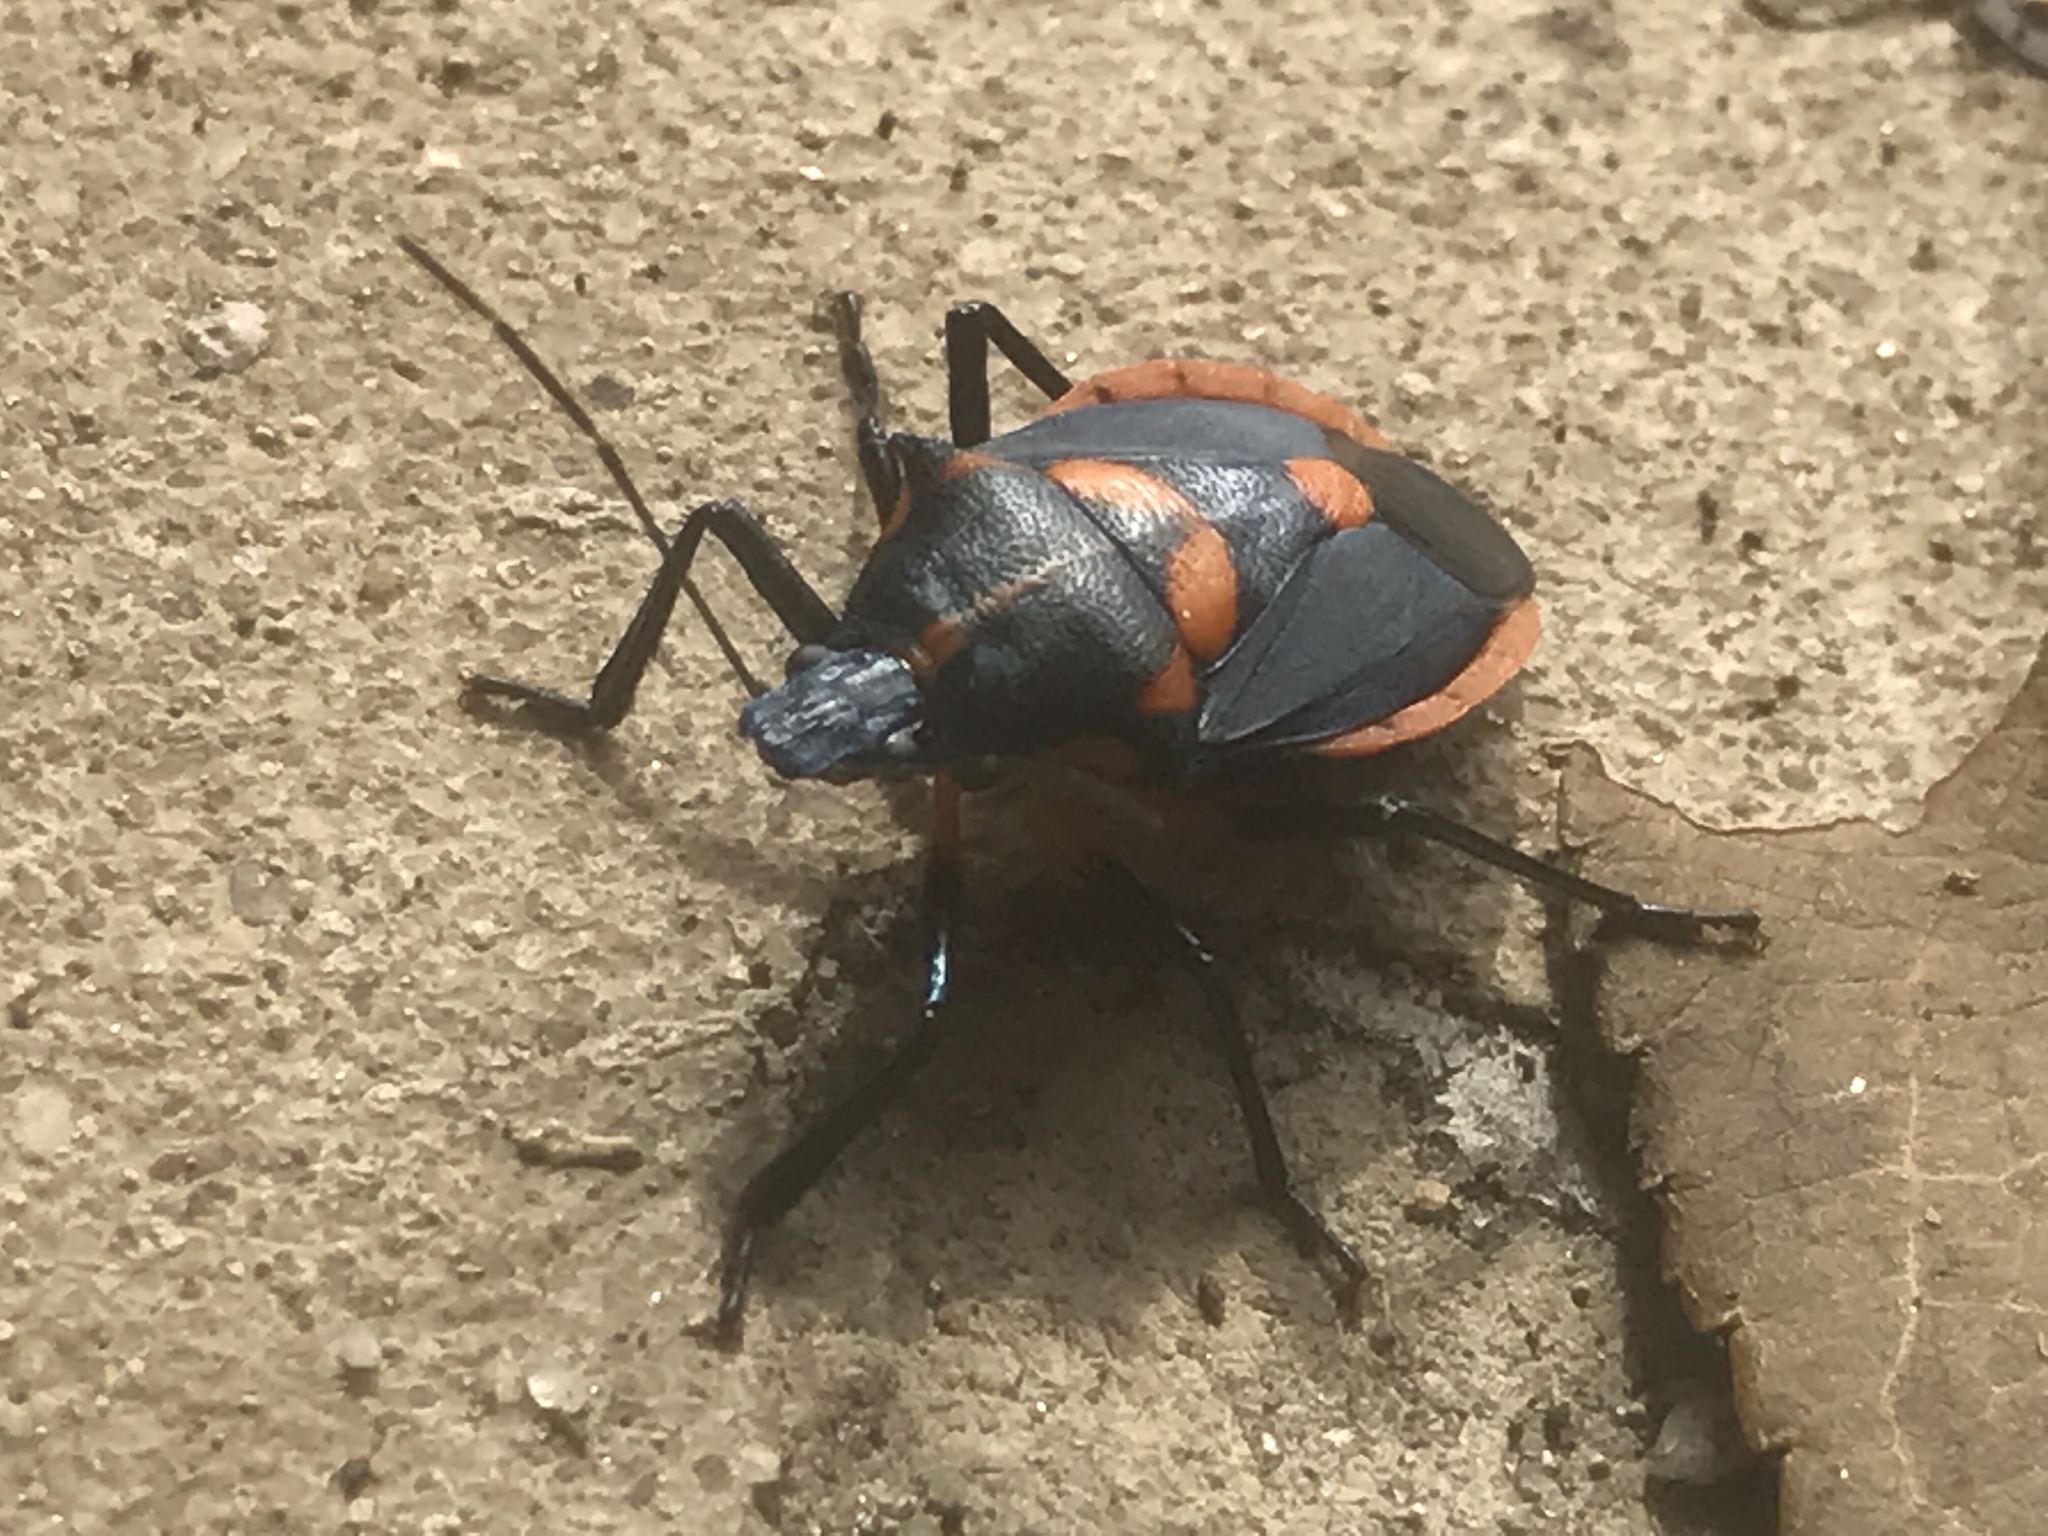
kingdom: Animalia
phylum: Arthropoda
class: Insecta
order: Hemiptera
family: Pentatomidae
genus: Euthyrhynchus
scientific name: Euthyrhynchus floridanus
